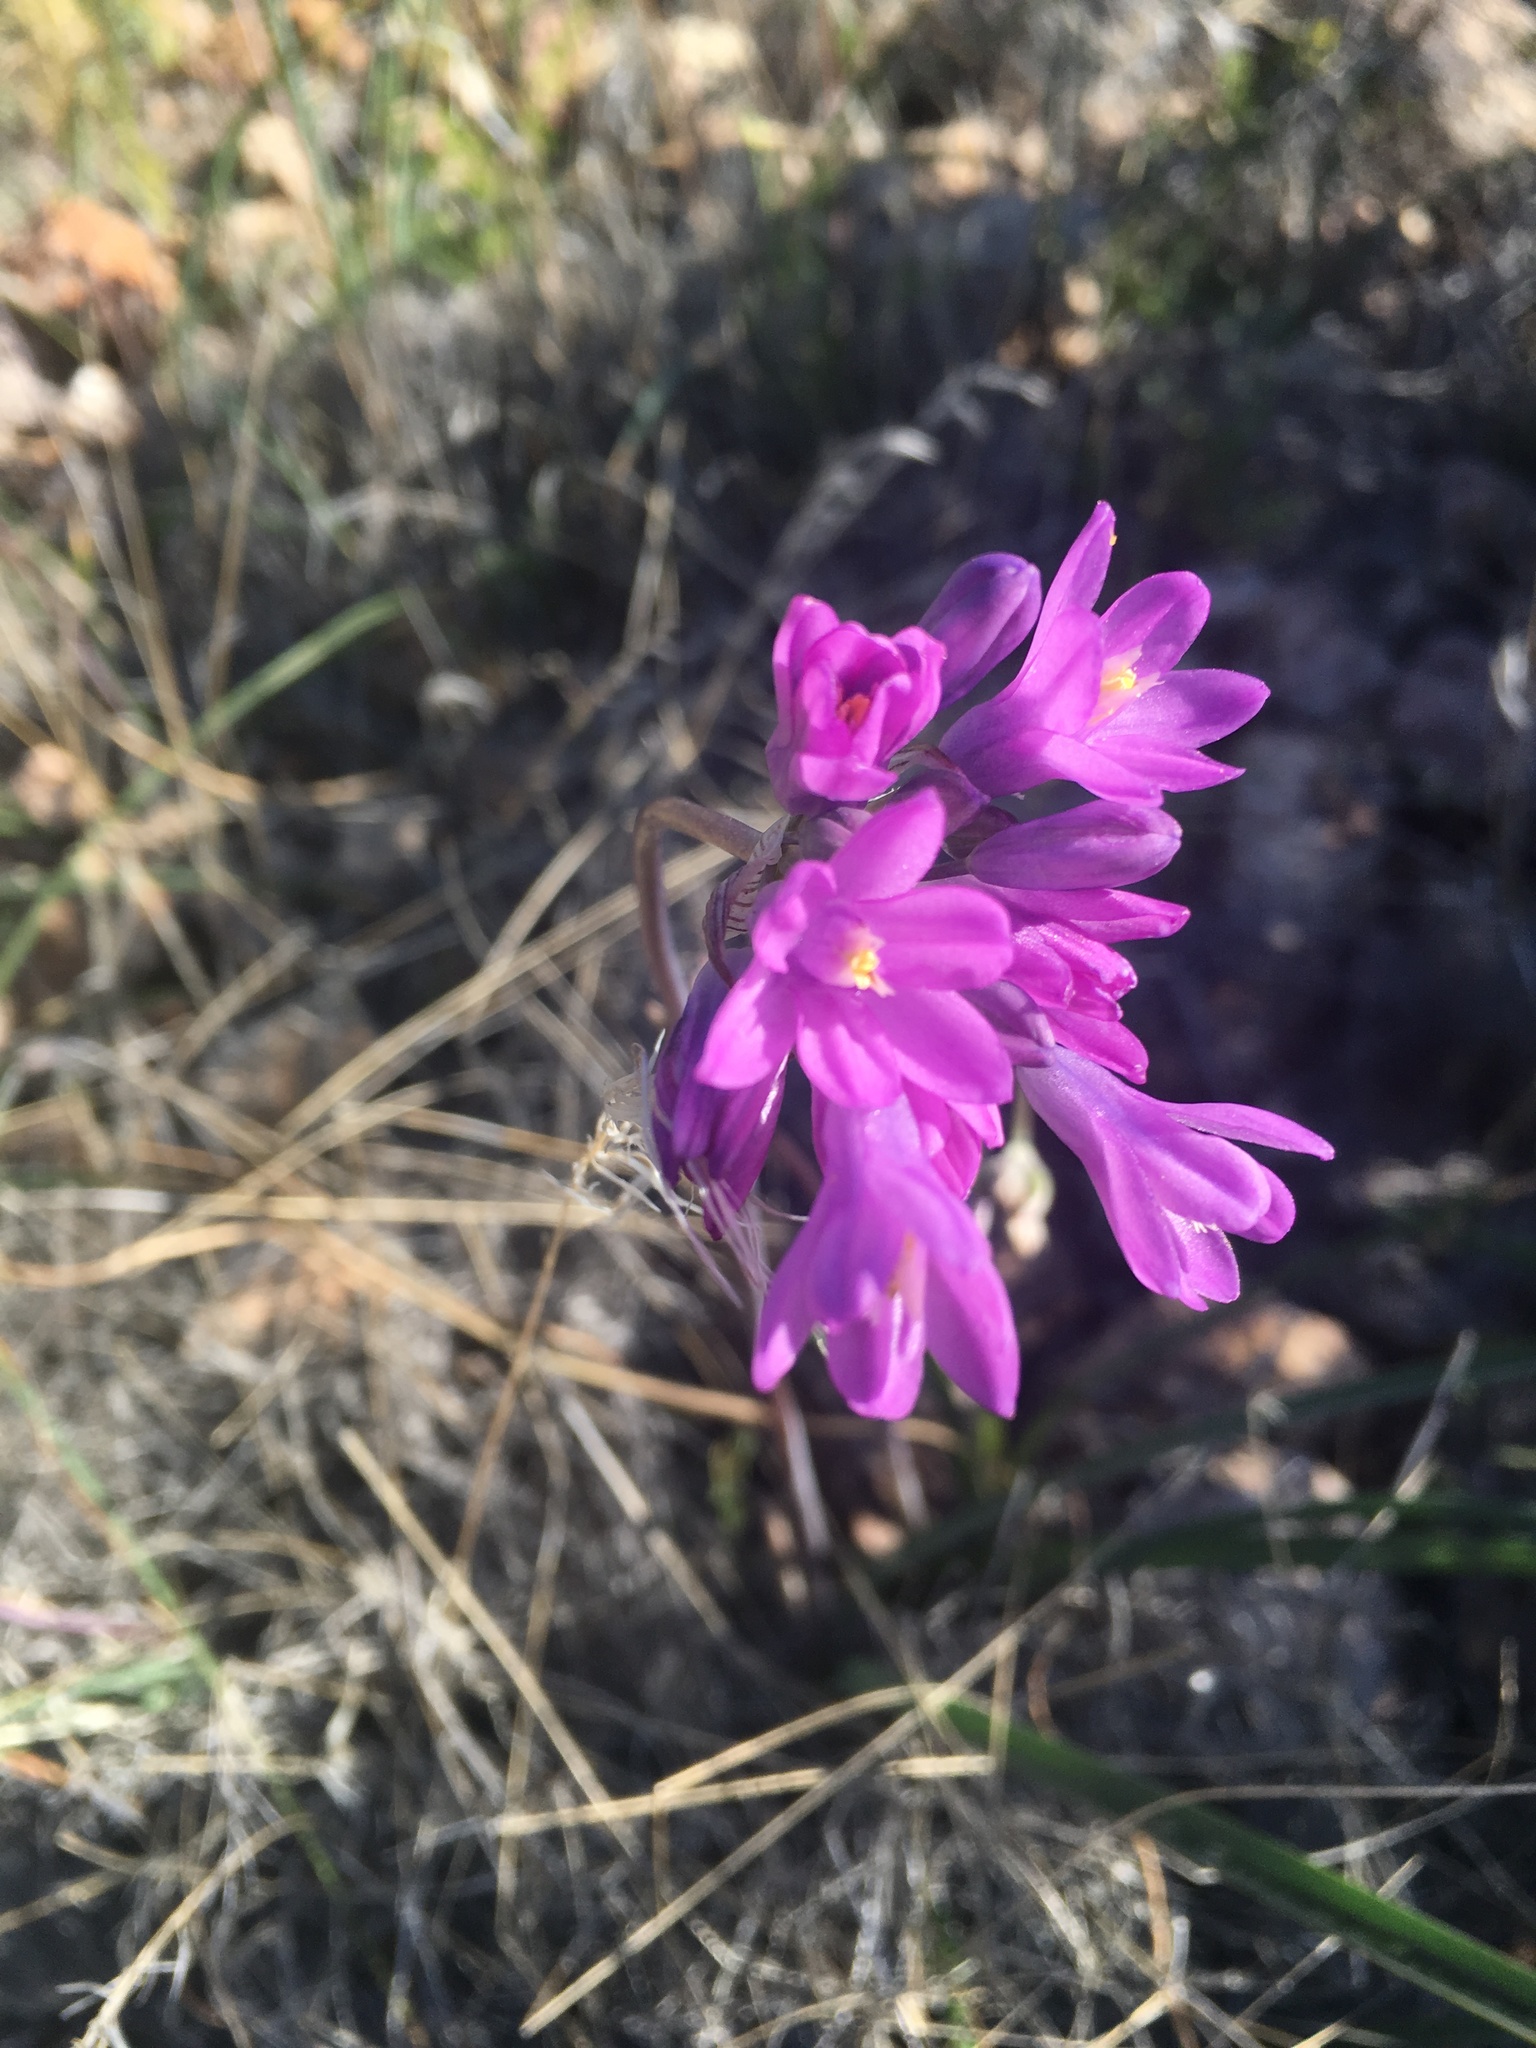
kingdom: Plantae
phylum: Tracheophyta
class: Liliopsida
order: Asparagales
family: Asparagaceae
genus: Dipterostemon
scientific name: Dipterostemon capitatus
